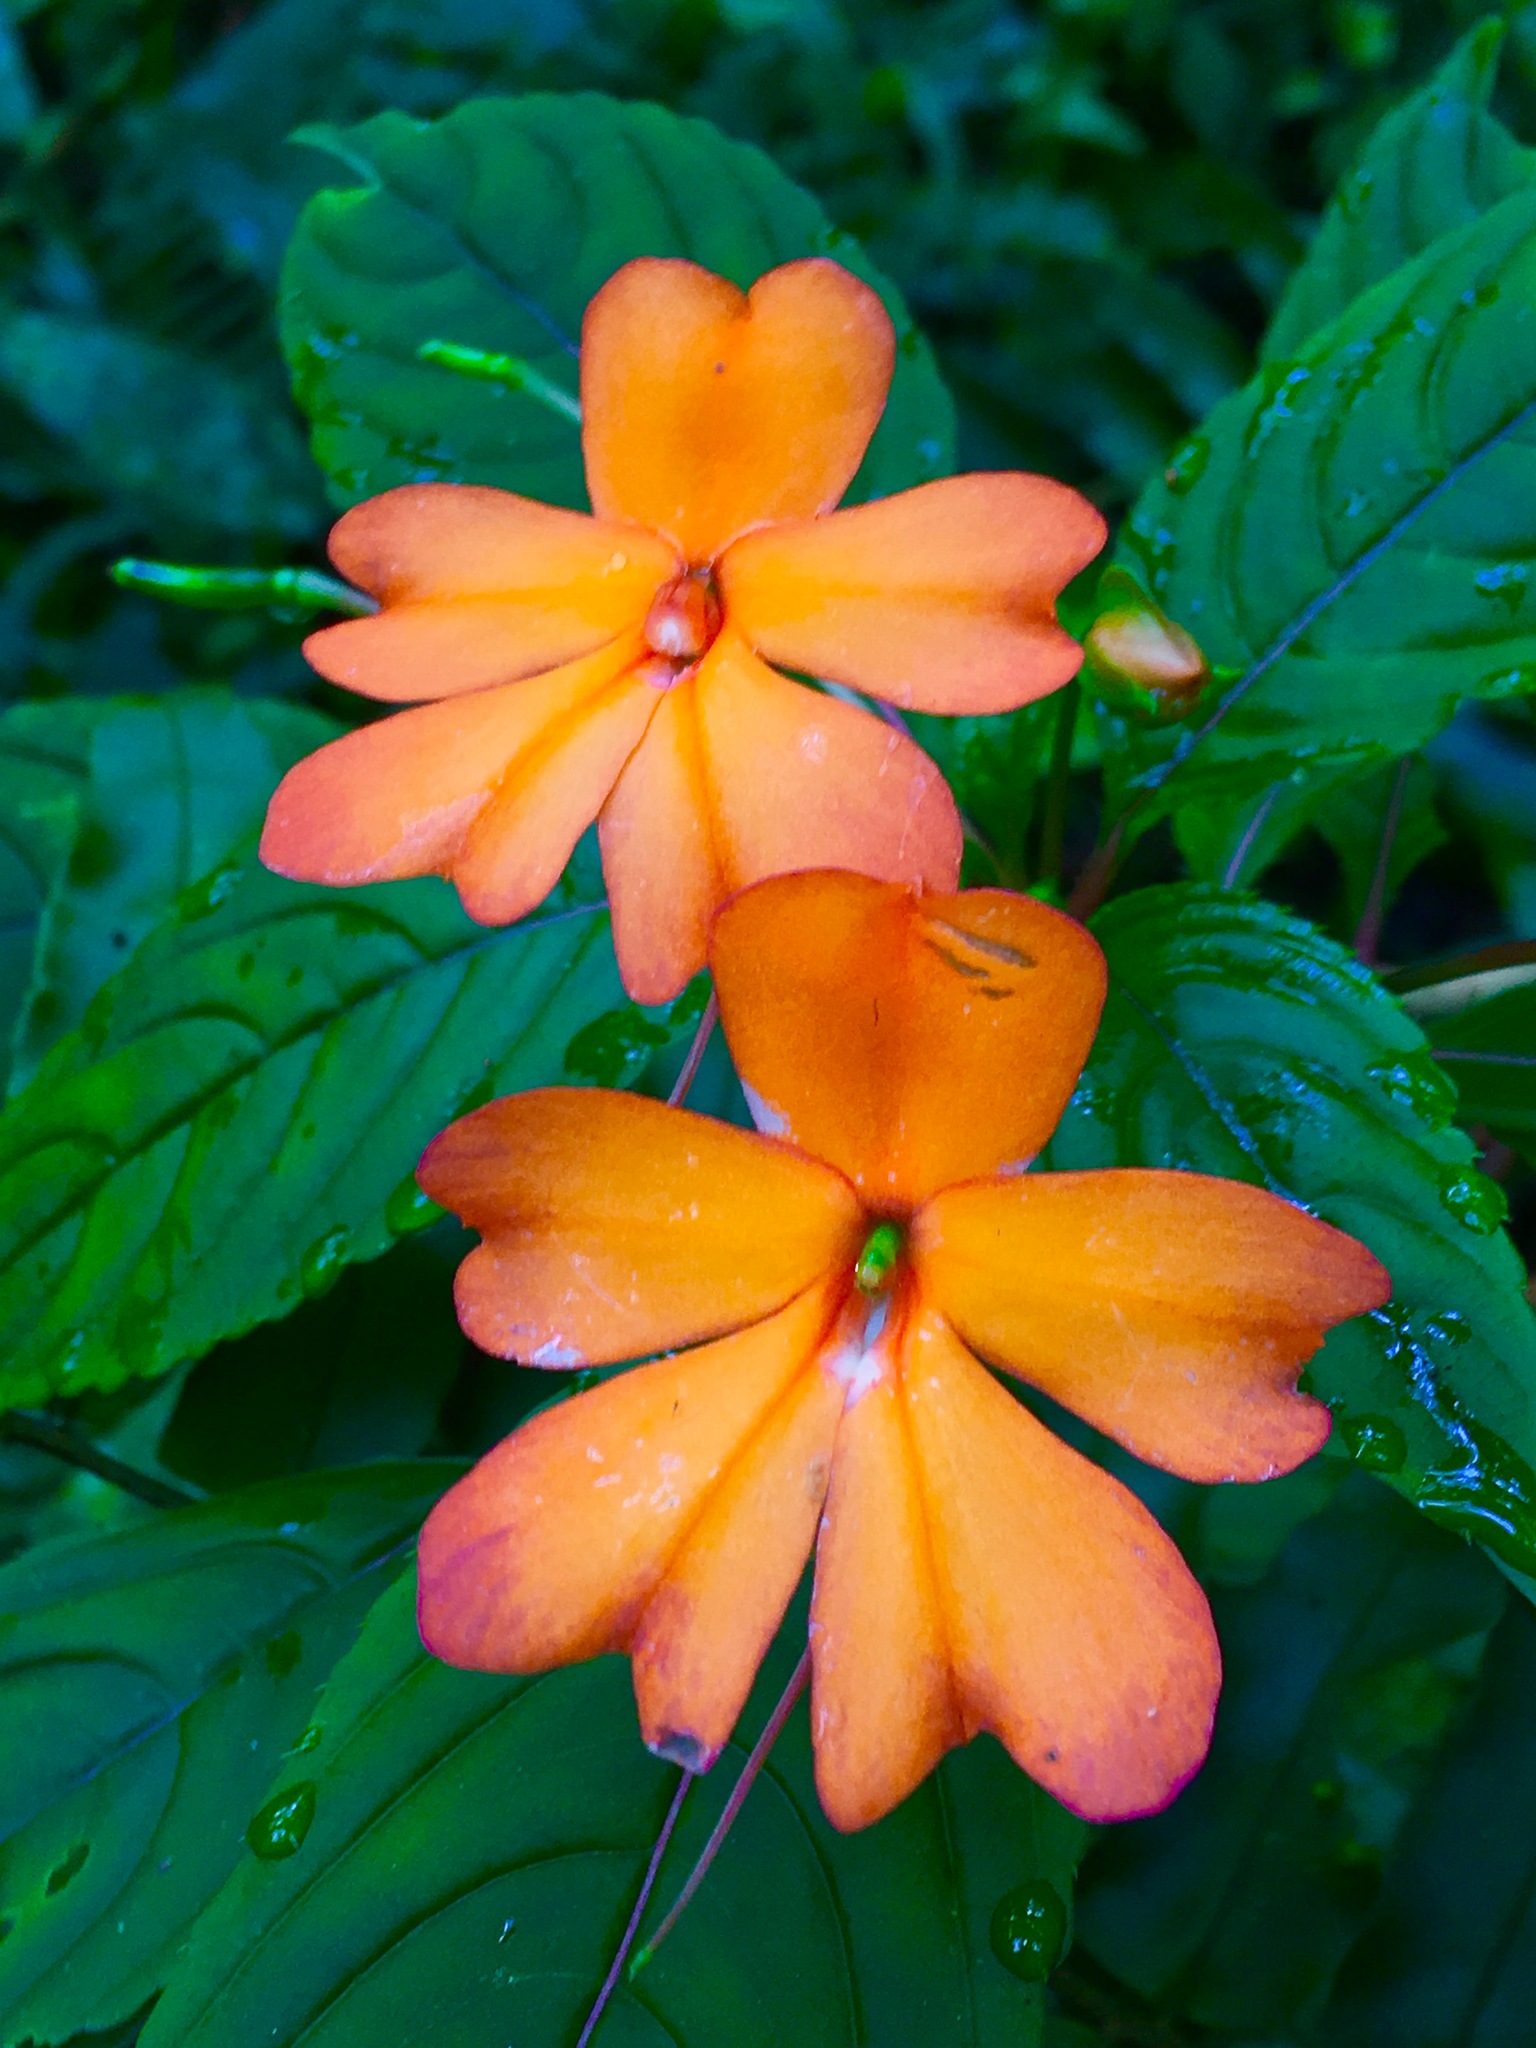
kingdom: Plantae
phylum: Tracheophyta
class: Magnoliopsida
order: Ericales
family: Balsaminaceae
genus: Impatiens
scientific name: Impatiens platypetala
